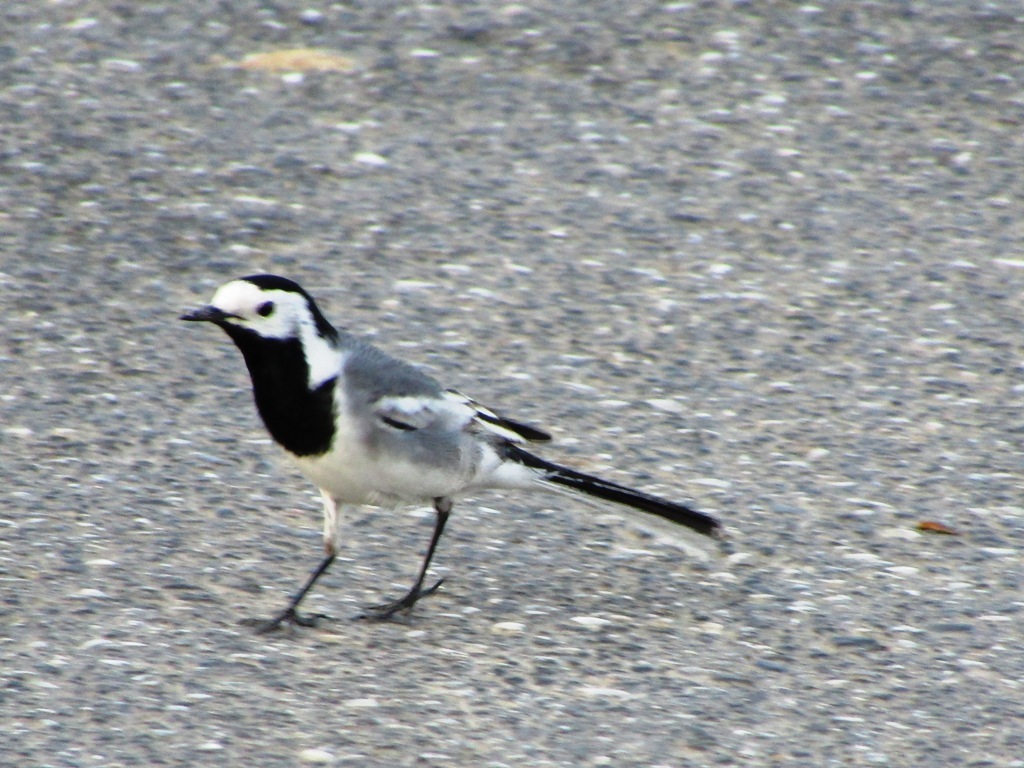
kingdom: Animalia
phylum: Chordata
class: Aves
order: Passeriformes
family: Motacillidae
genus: Motacilla
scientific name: Motacilla alba
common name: White wagtail
